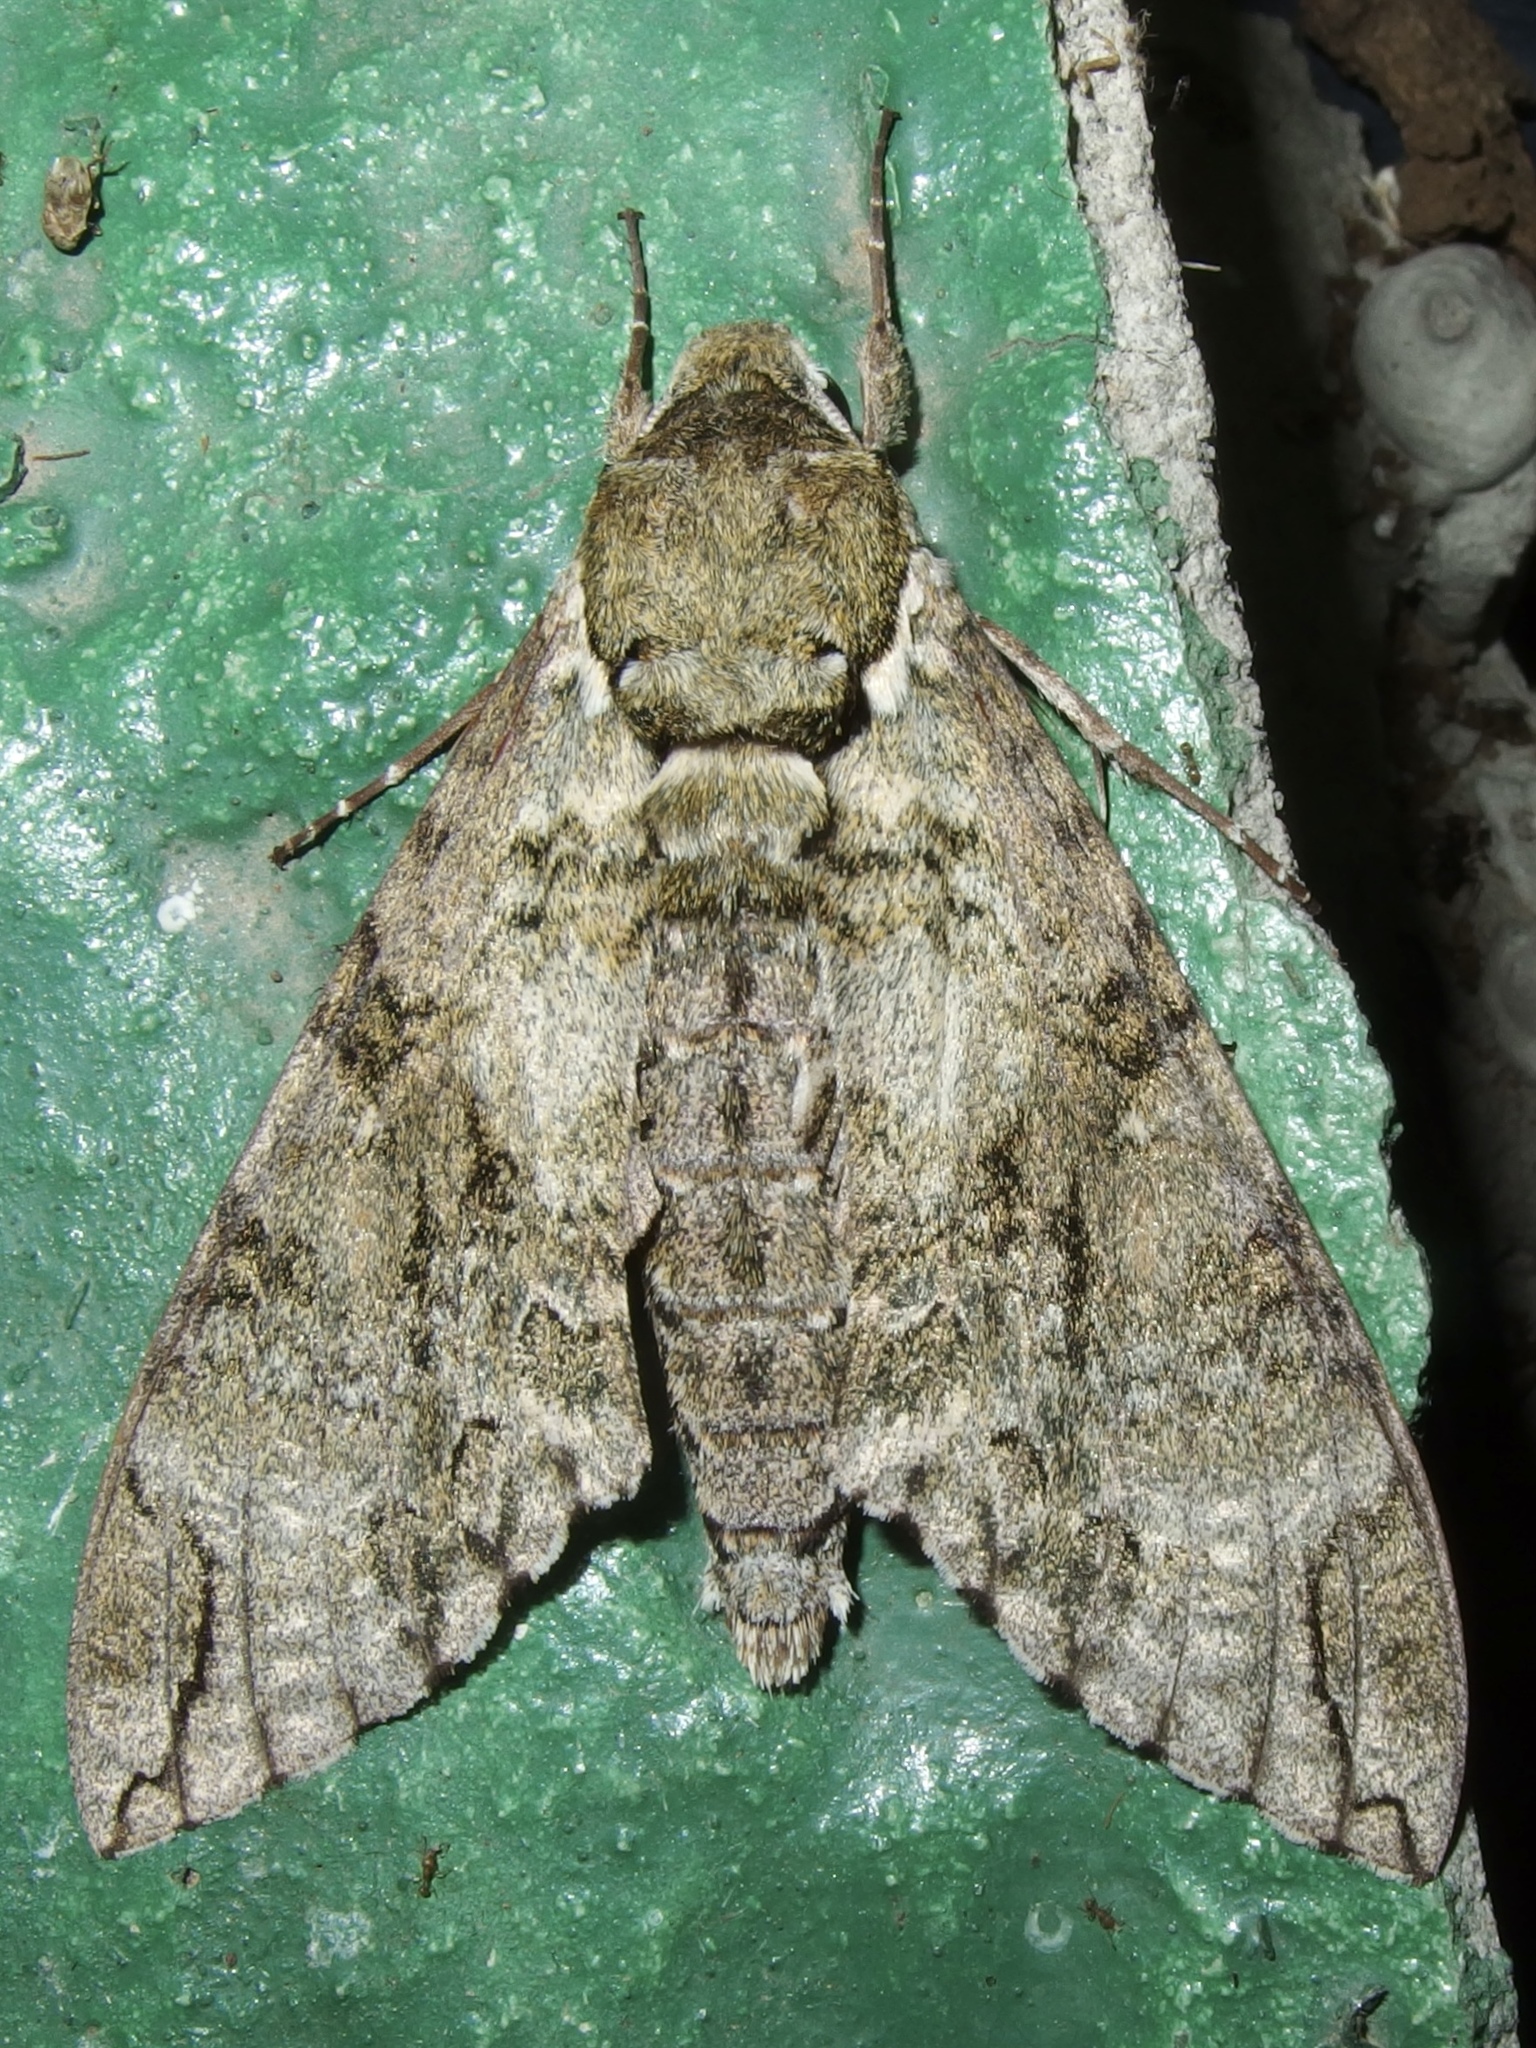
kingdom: Animalia
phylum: Arthropoda
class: Insecta
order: Lepidoptera
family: Sphingidae
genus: Manduca
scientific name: Manduca florestan
